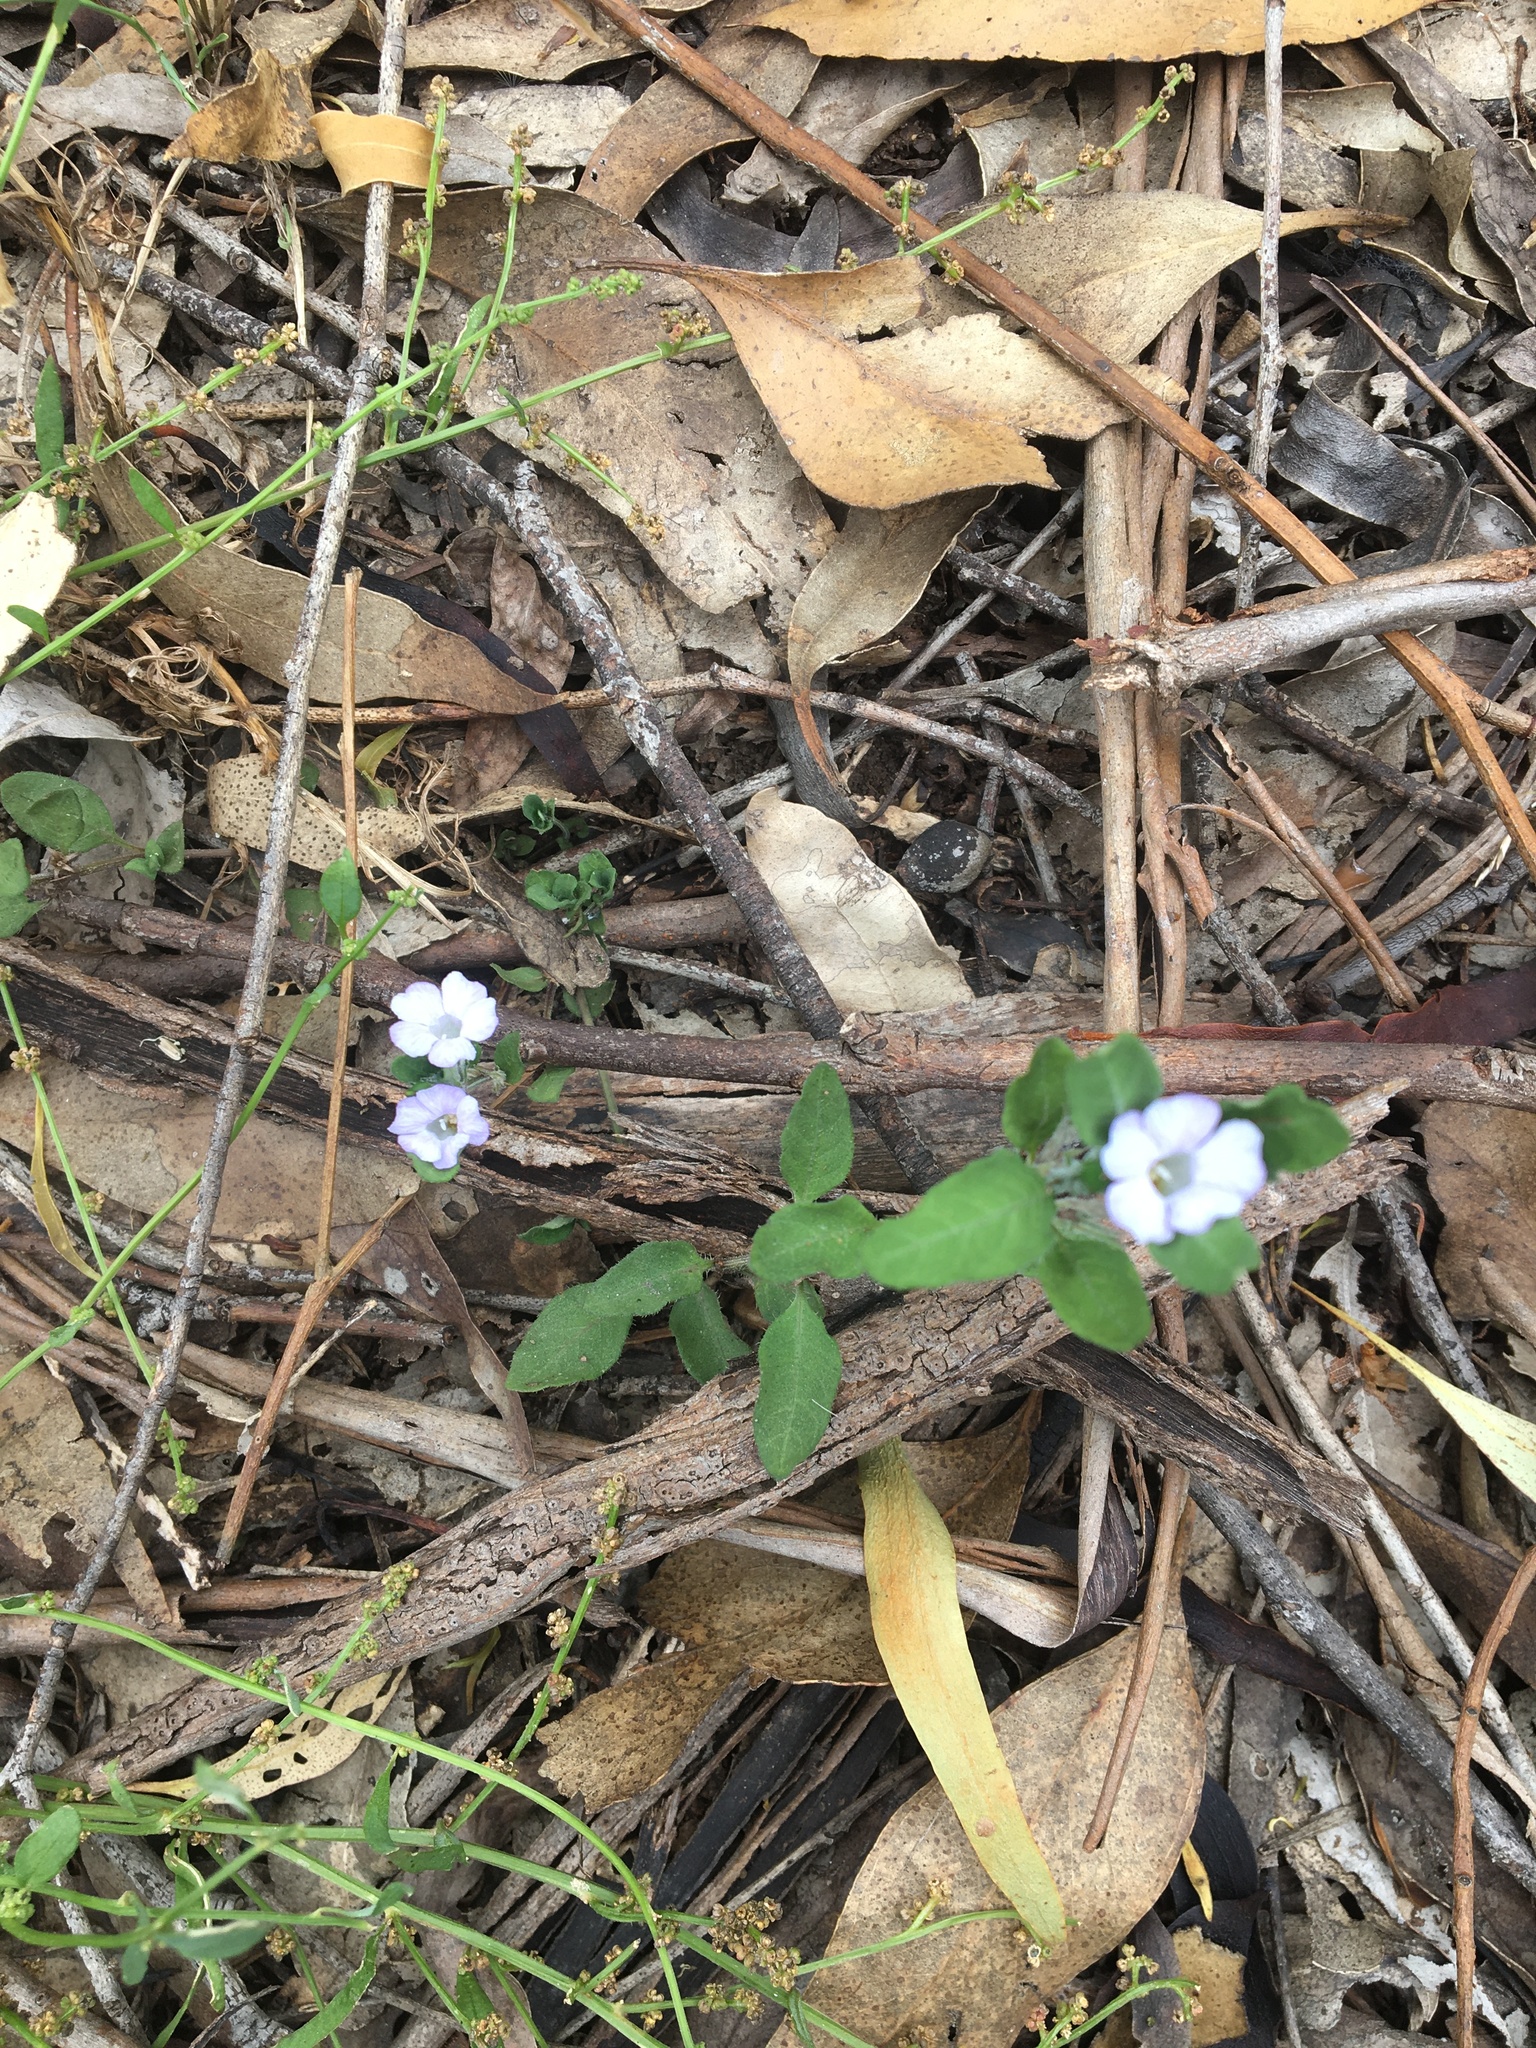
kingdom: Plantae
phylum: Tracheophyta
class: Magnoliopsida
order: Lamiales
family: Acanthaceae
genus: Brunoniella
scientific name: Brunoniella australis
